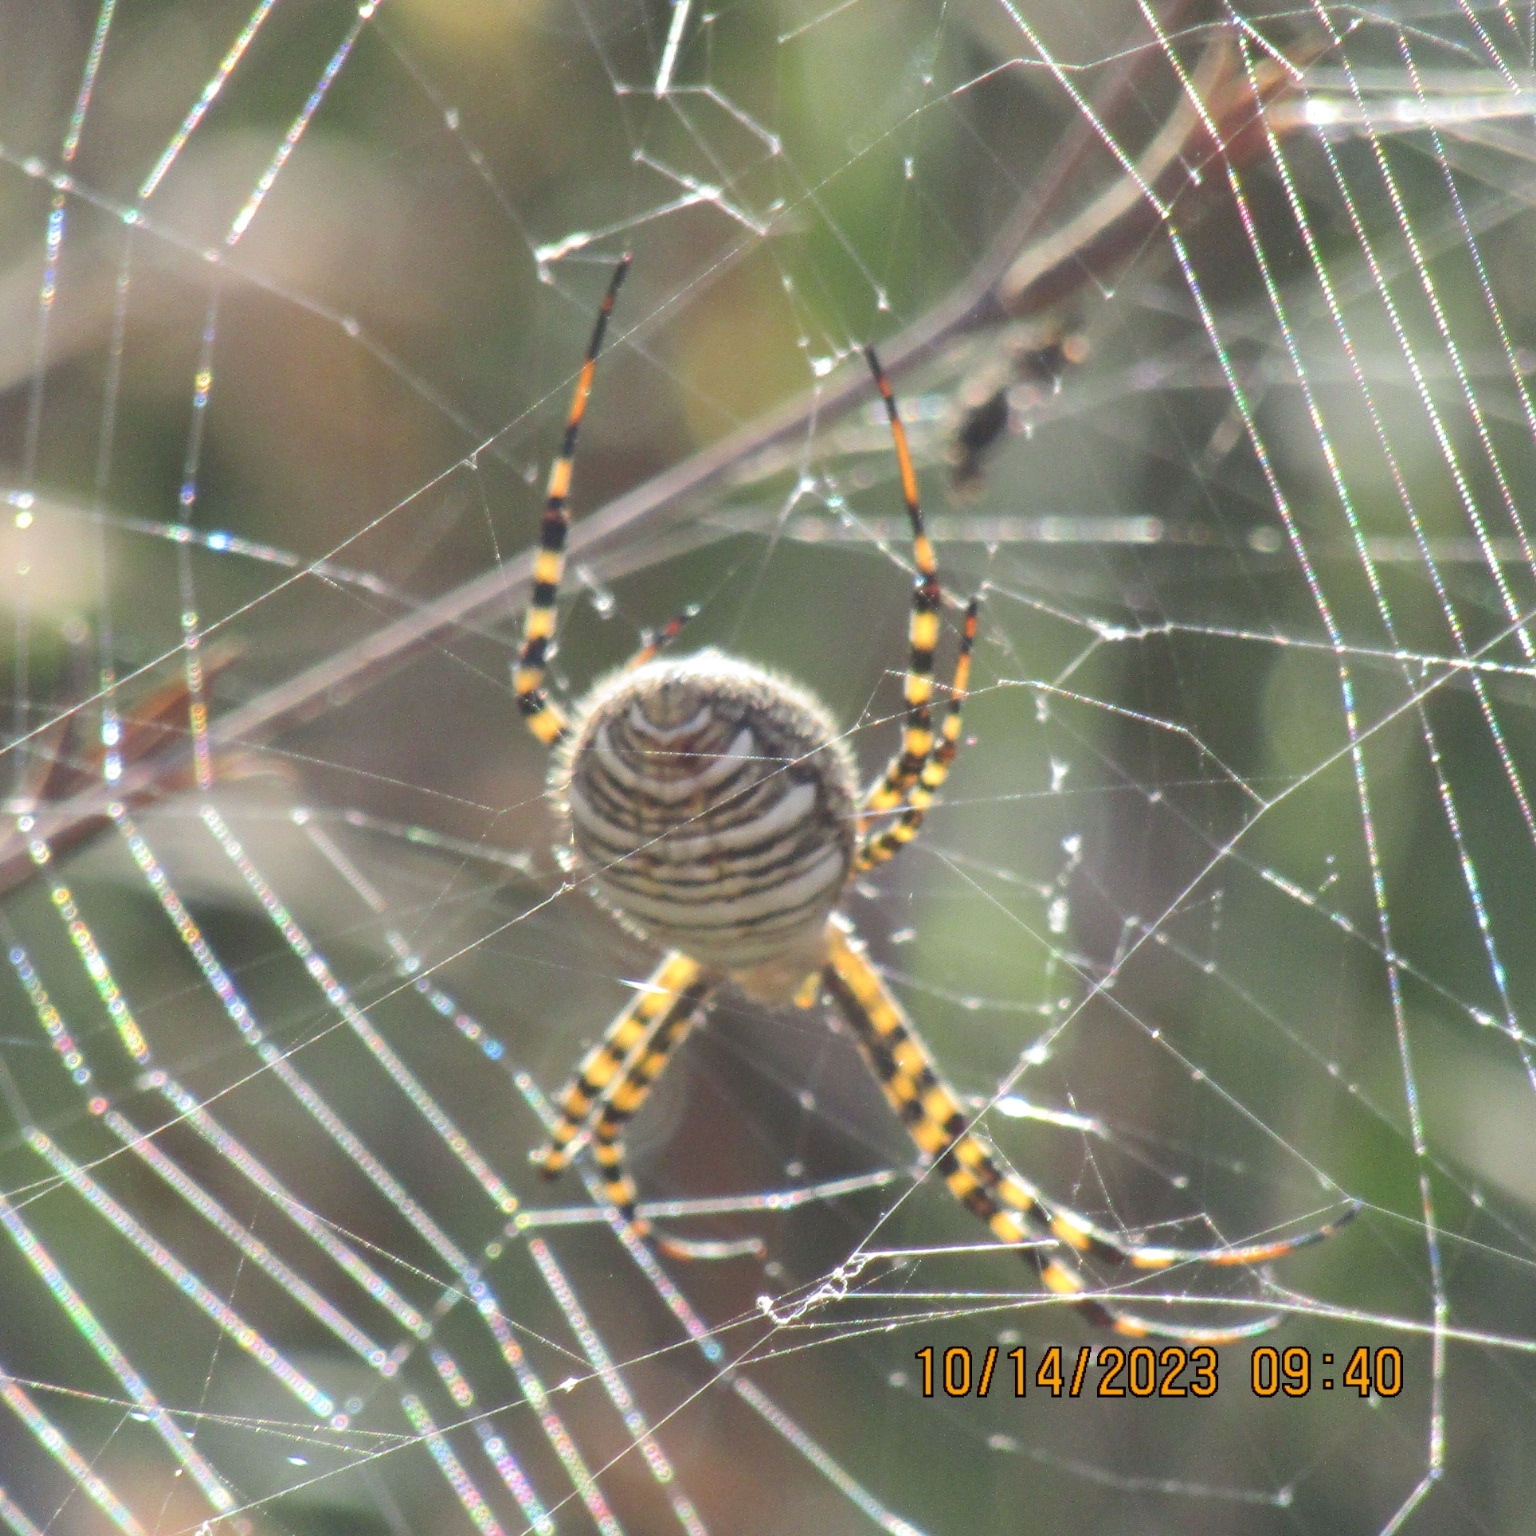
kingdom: Animalia
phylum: Arthropoda
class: Arachnida
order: Araneae
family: Araneidae
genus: Argiope
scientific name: Argiope trifasciata
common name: Banded garden spider
